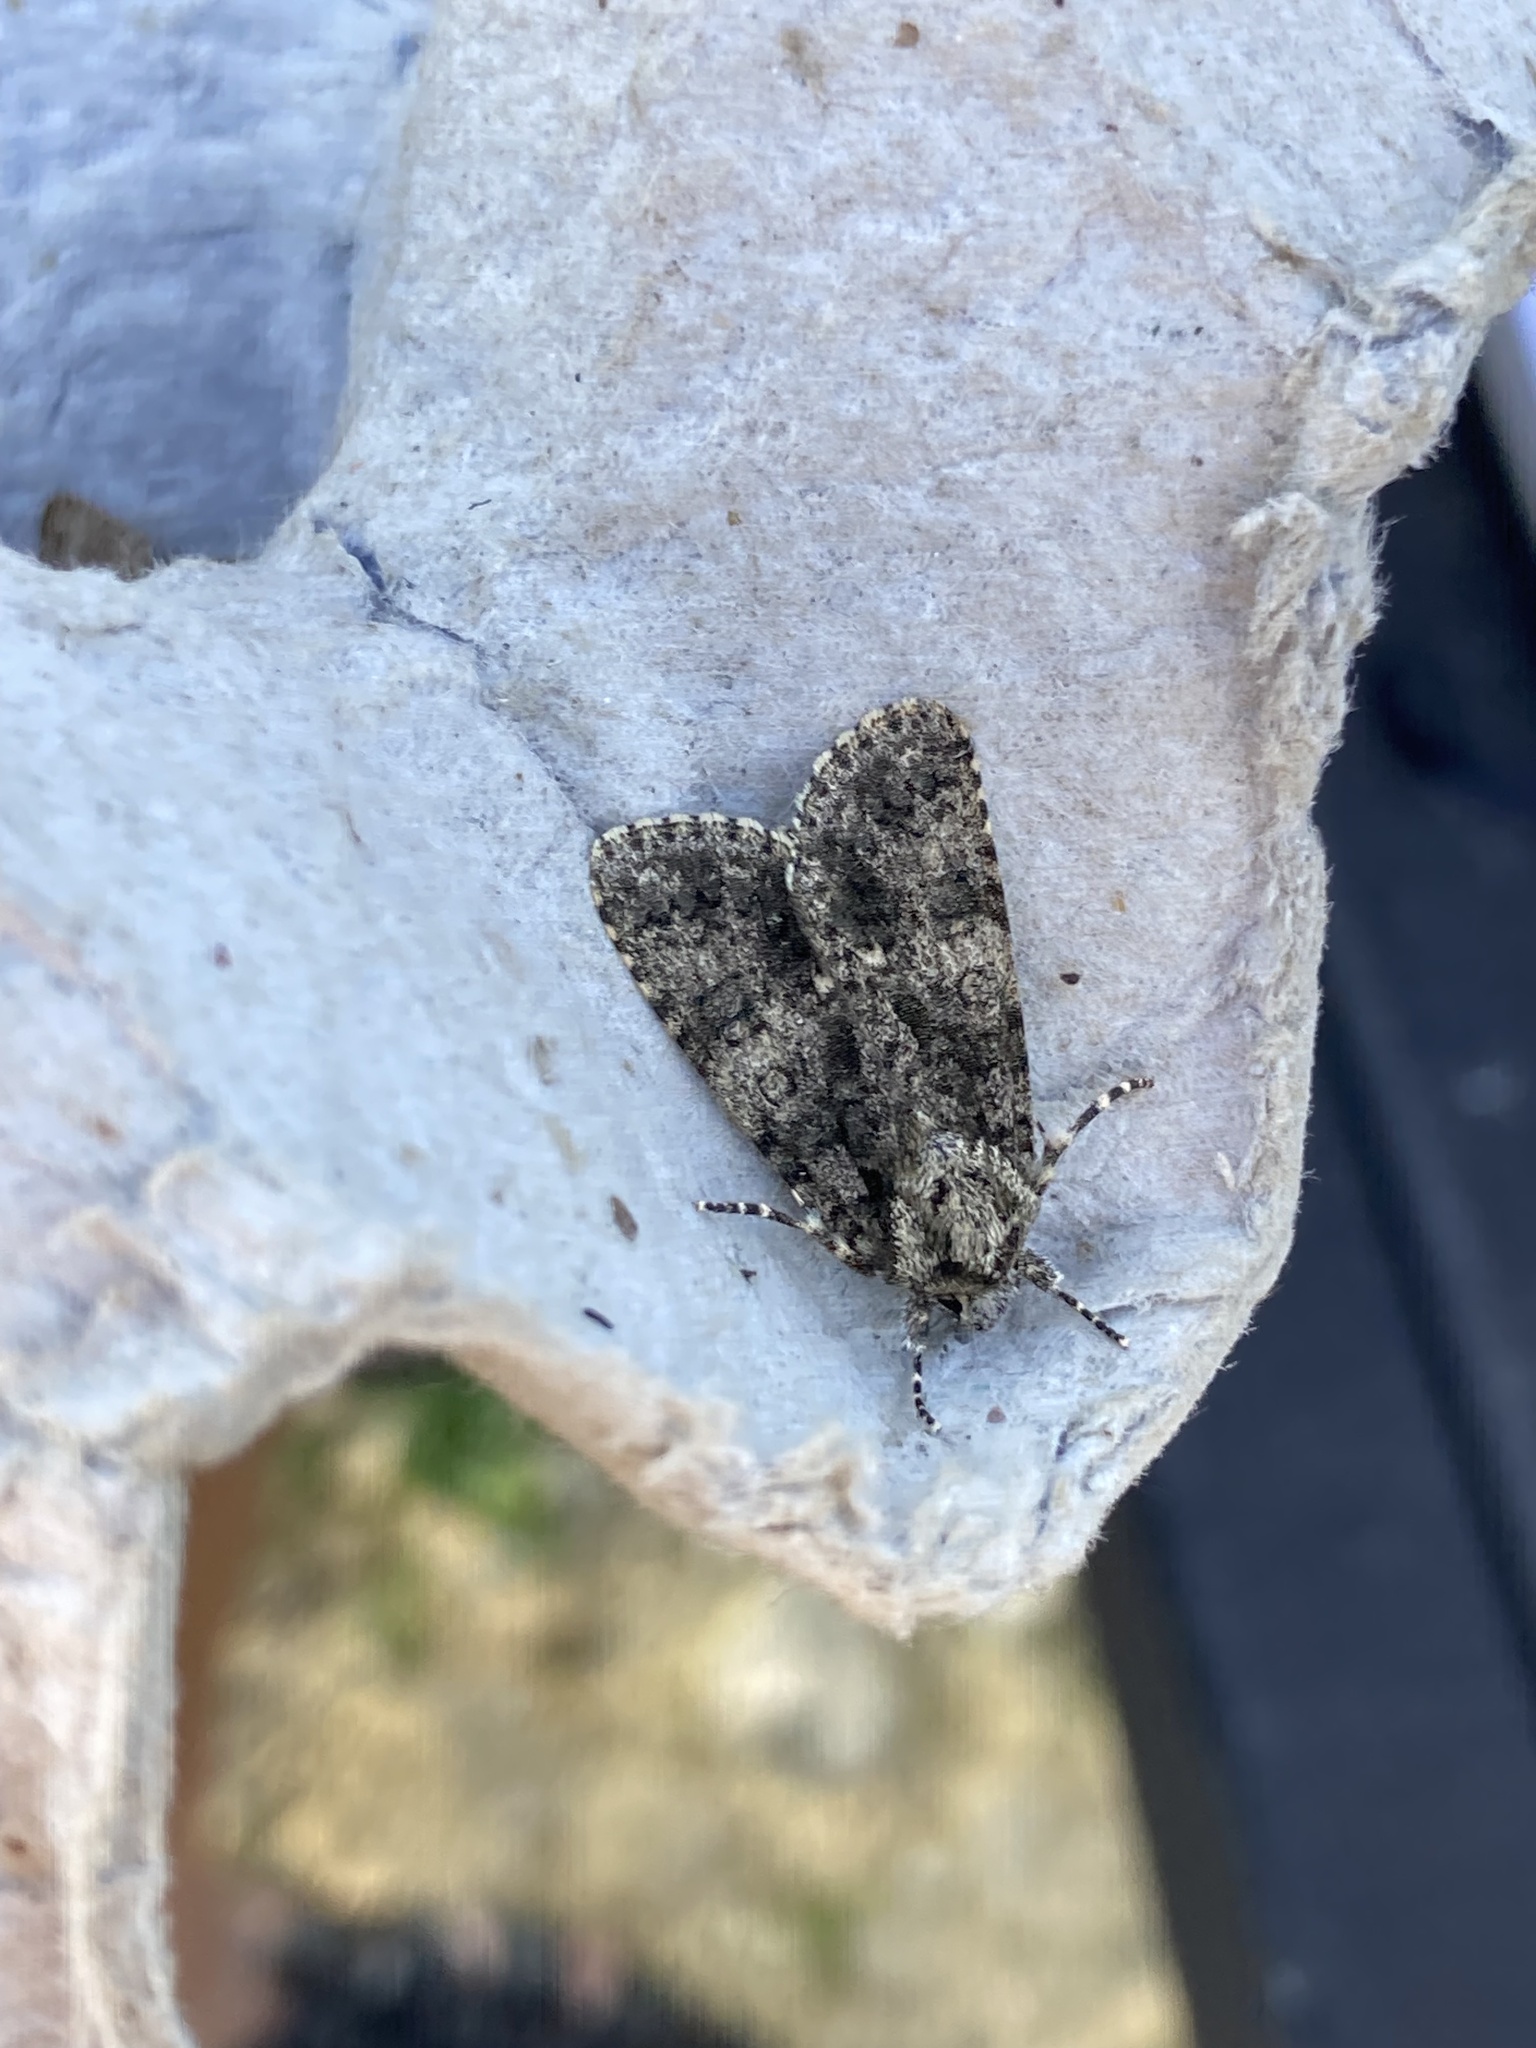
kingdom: Animalia
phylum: Arthropoda
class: Insecta
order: Lepidoptera
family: Noctuidae
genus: Acronicta
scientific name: Acronicta rumicis
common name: Knot grass
